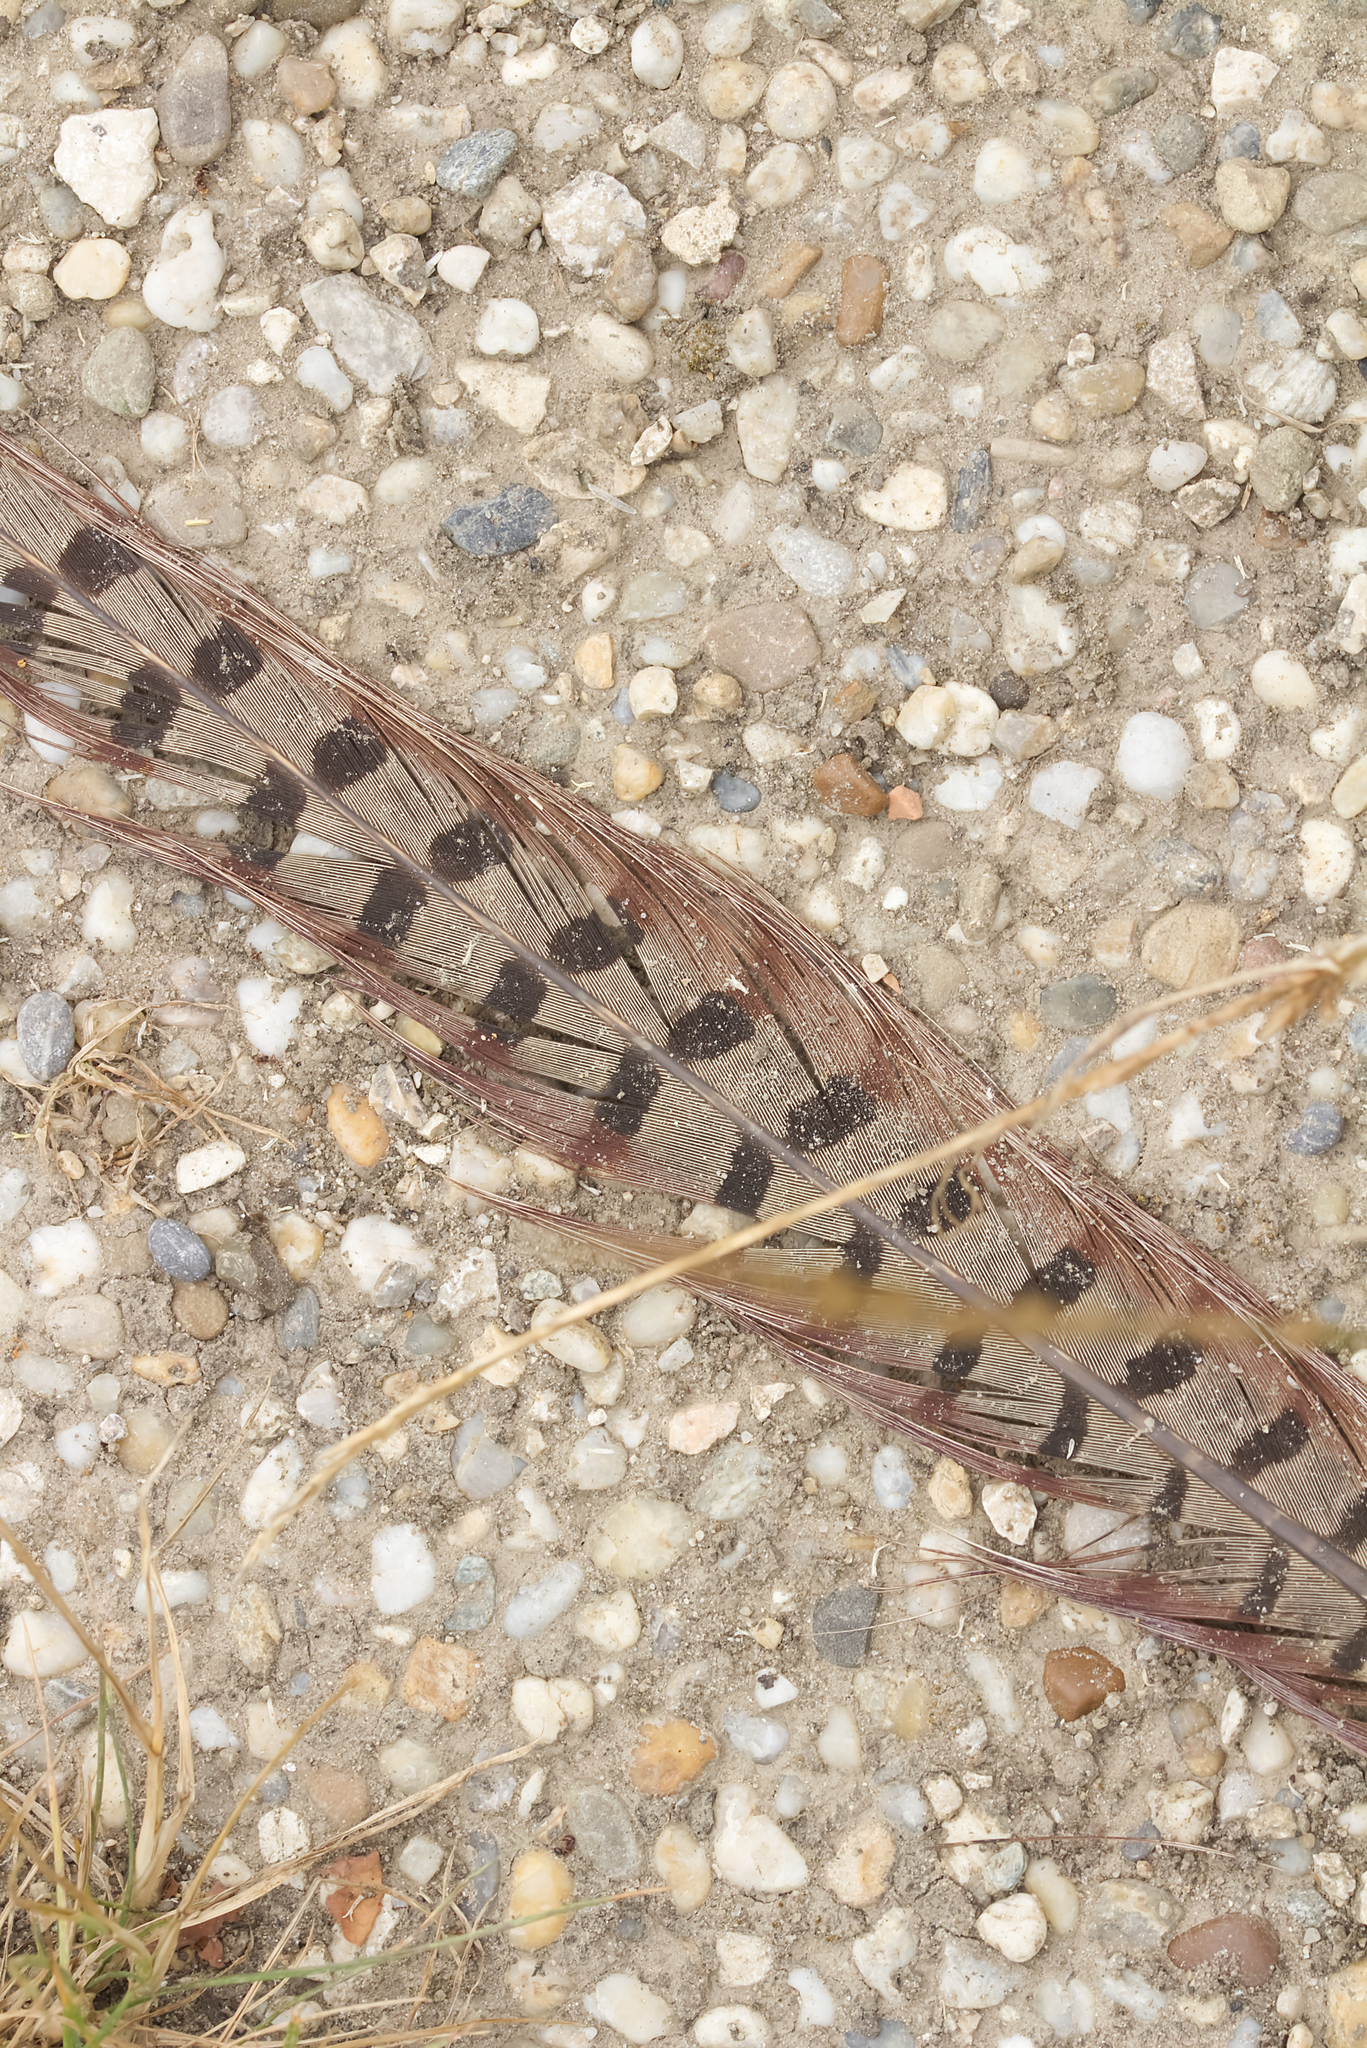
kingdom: Animalia
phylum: Chordata
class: Aves
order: Galliformes
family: Phasianidae
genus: Phasianus
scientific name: Phasianus colchicus
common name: Common pheasant
